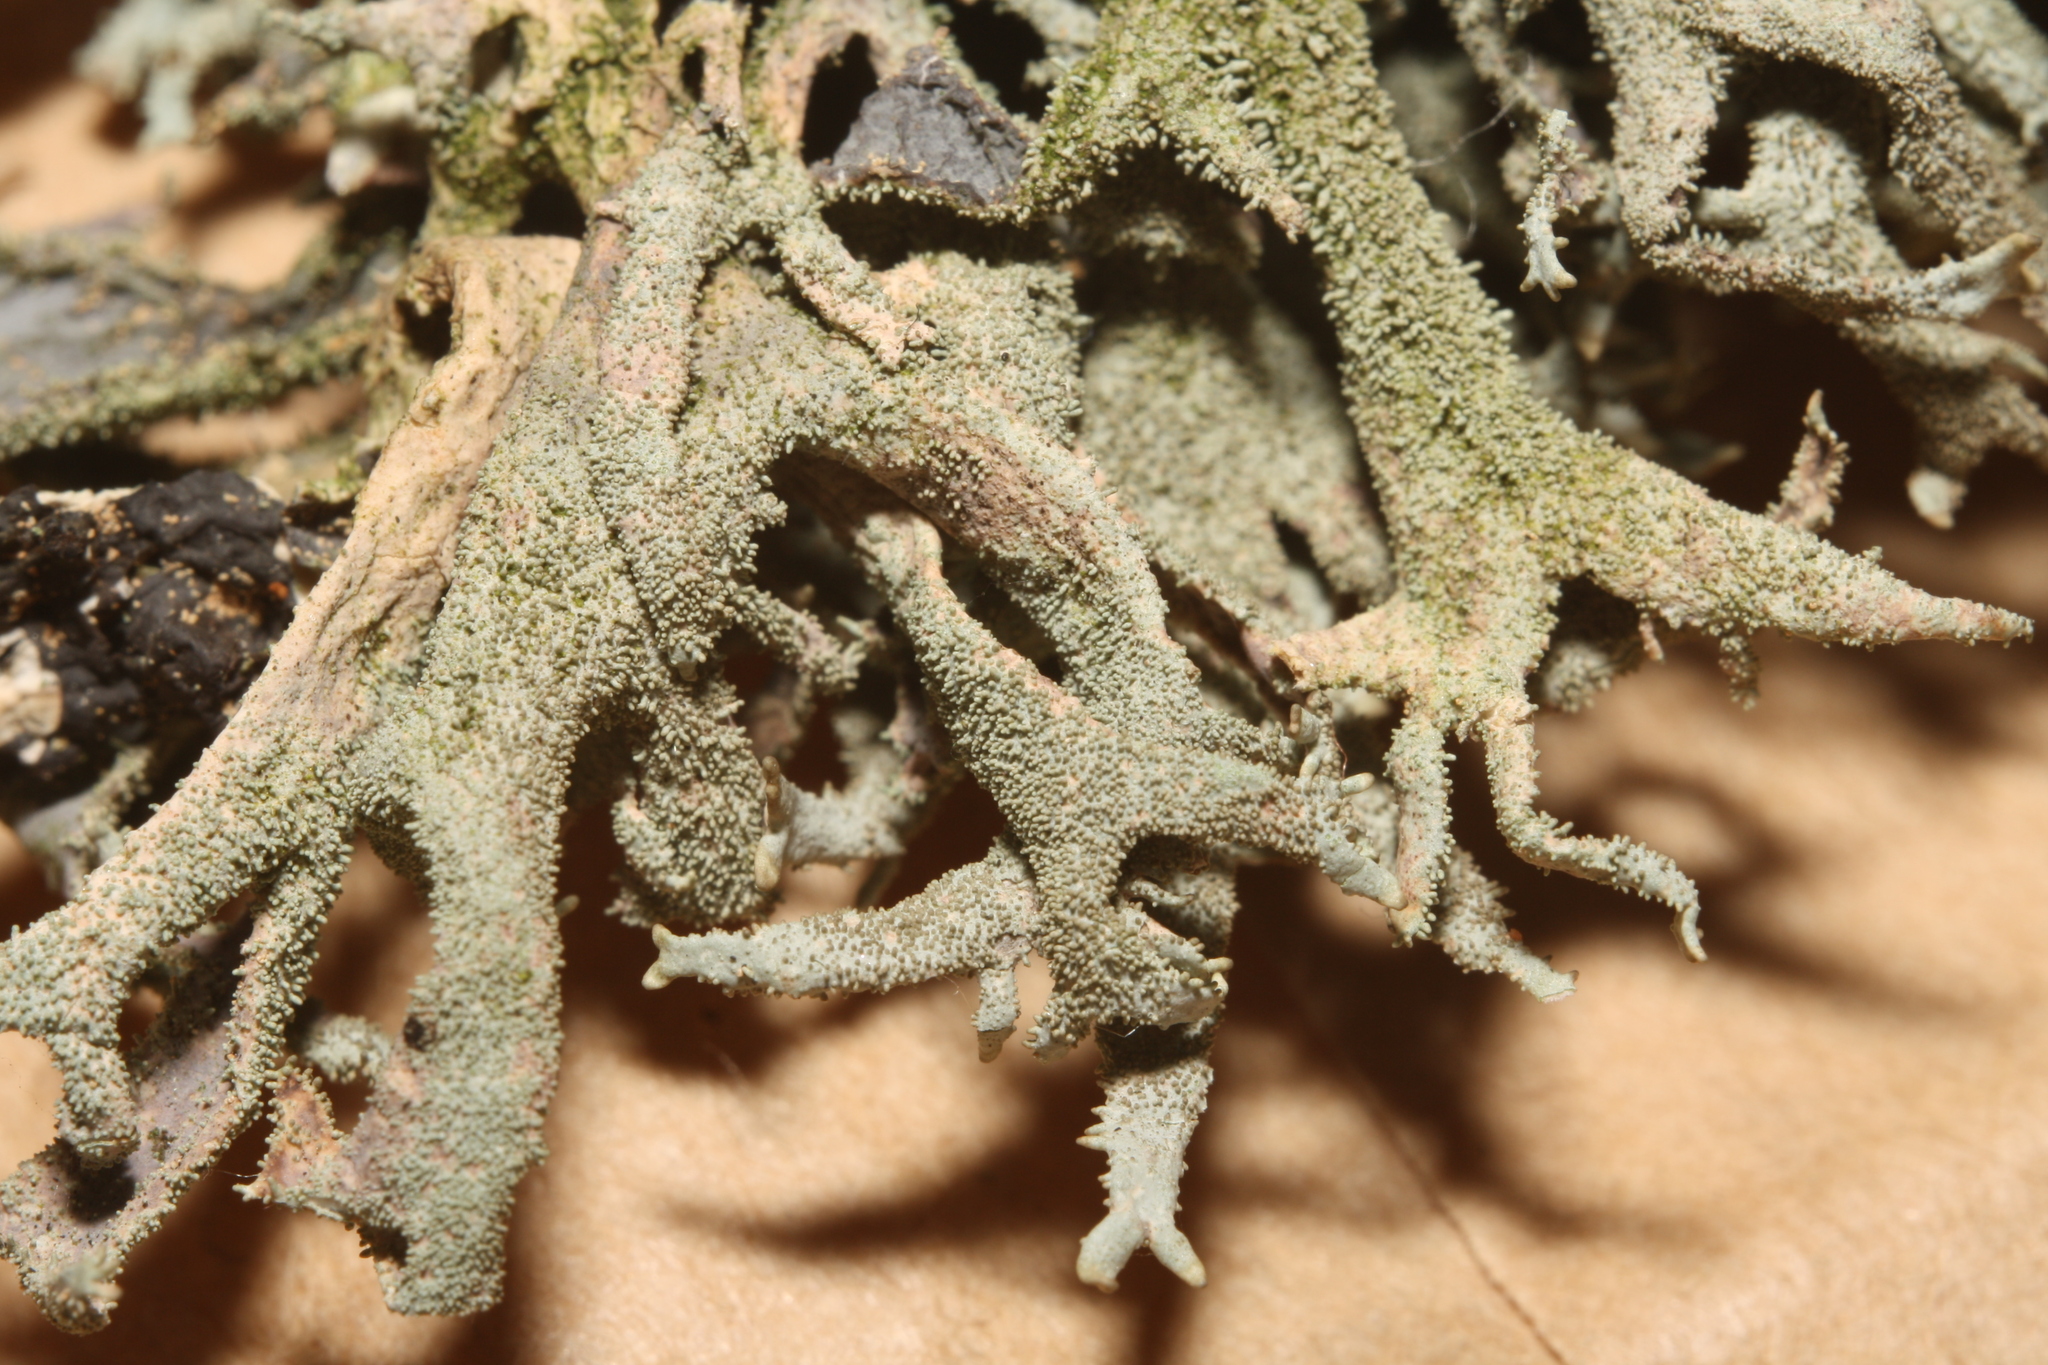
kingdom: Fungi
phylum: Ascomycota
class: Lecanoromycetes
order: Lecanorales
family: Parmeliaceae
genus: Pseudevernia
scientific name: Pseudevernia furfuracea
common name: Tree moss
